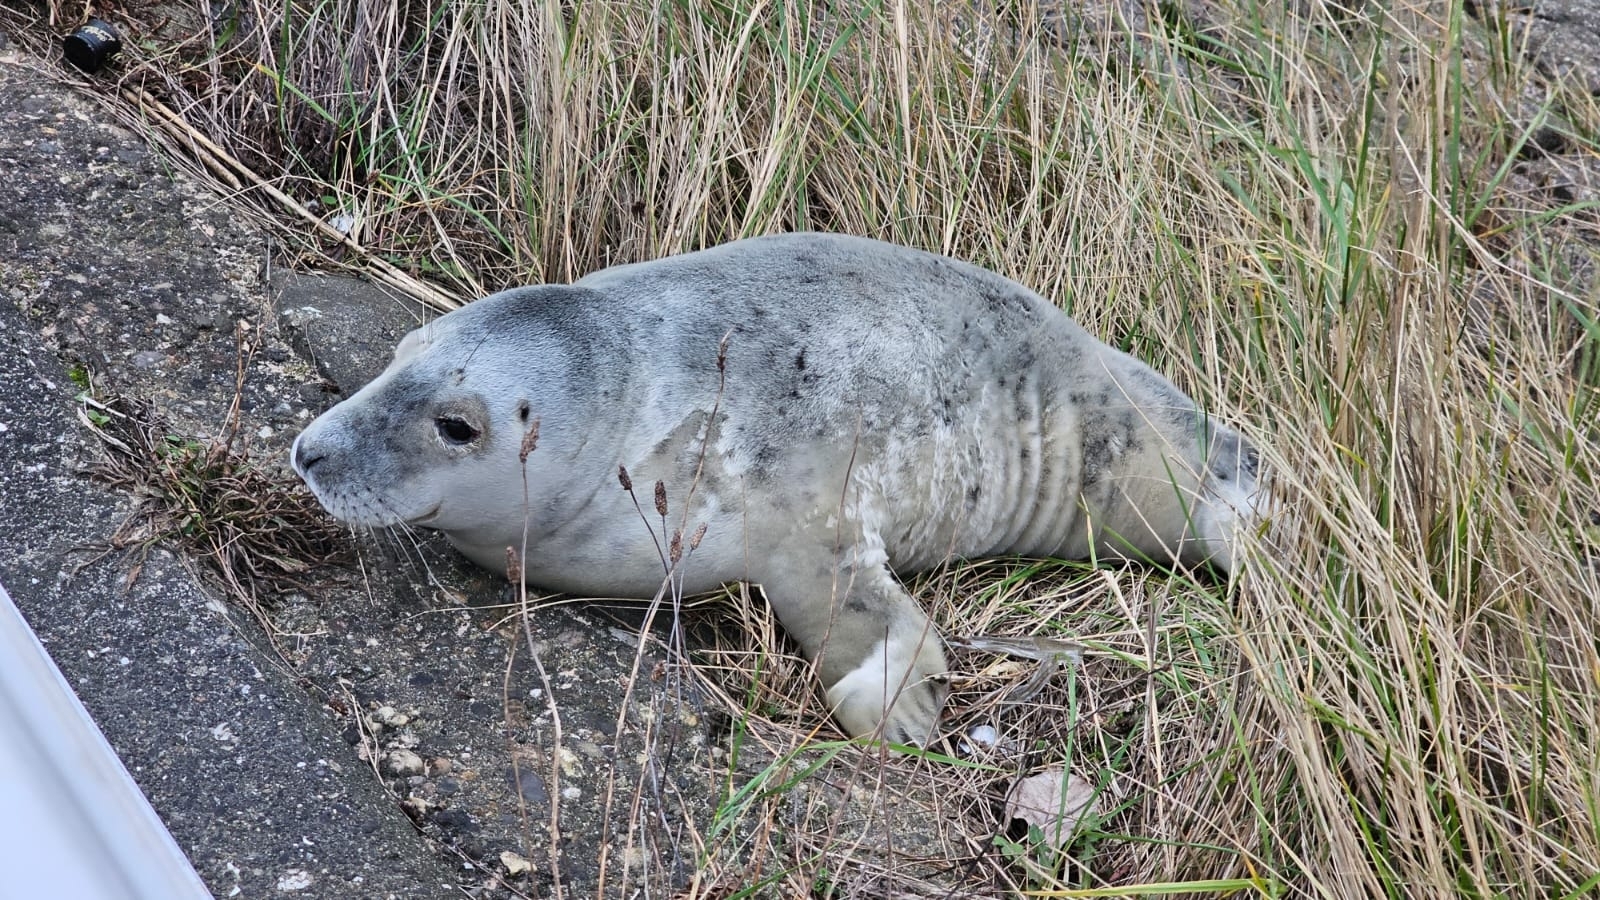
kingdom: Animalia
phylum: Chordata
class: Mammalia
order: Carnivora
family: Phocidae
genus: Halichoerus
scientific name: Halichoerus grypus
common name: Grey seal
